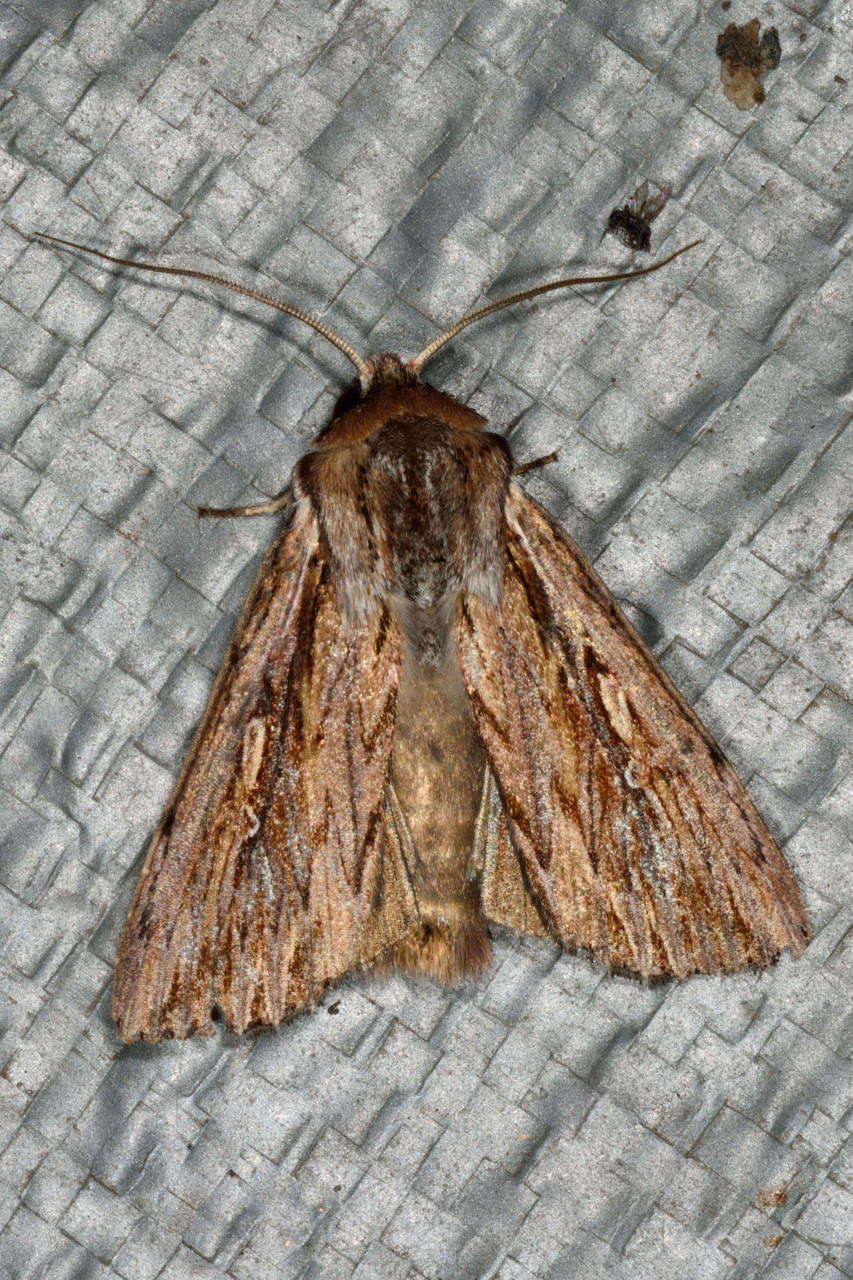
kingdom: Animalia
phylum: Arthropoda
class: Insecta
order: Lepidoptera
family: Noctuidae
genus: Persectania
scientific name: Persectania dyscrita
